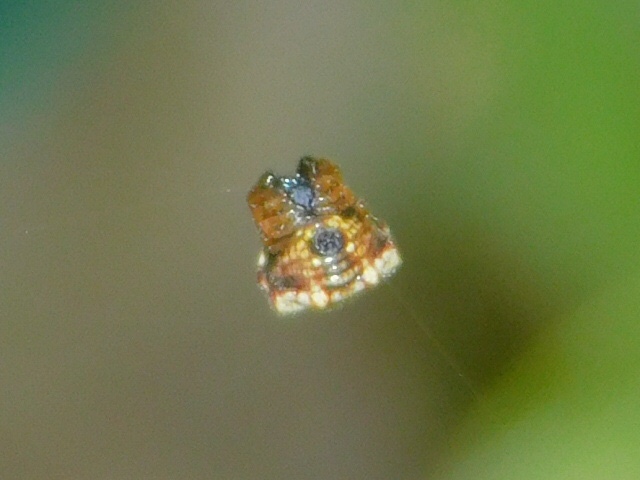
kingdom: Animalia
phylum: Arthropoda
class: Arachnida
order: Araneae
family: Araneidae
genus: Gasteracantha
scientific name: Gasteracantha cancriformis
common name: Orb weavers
